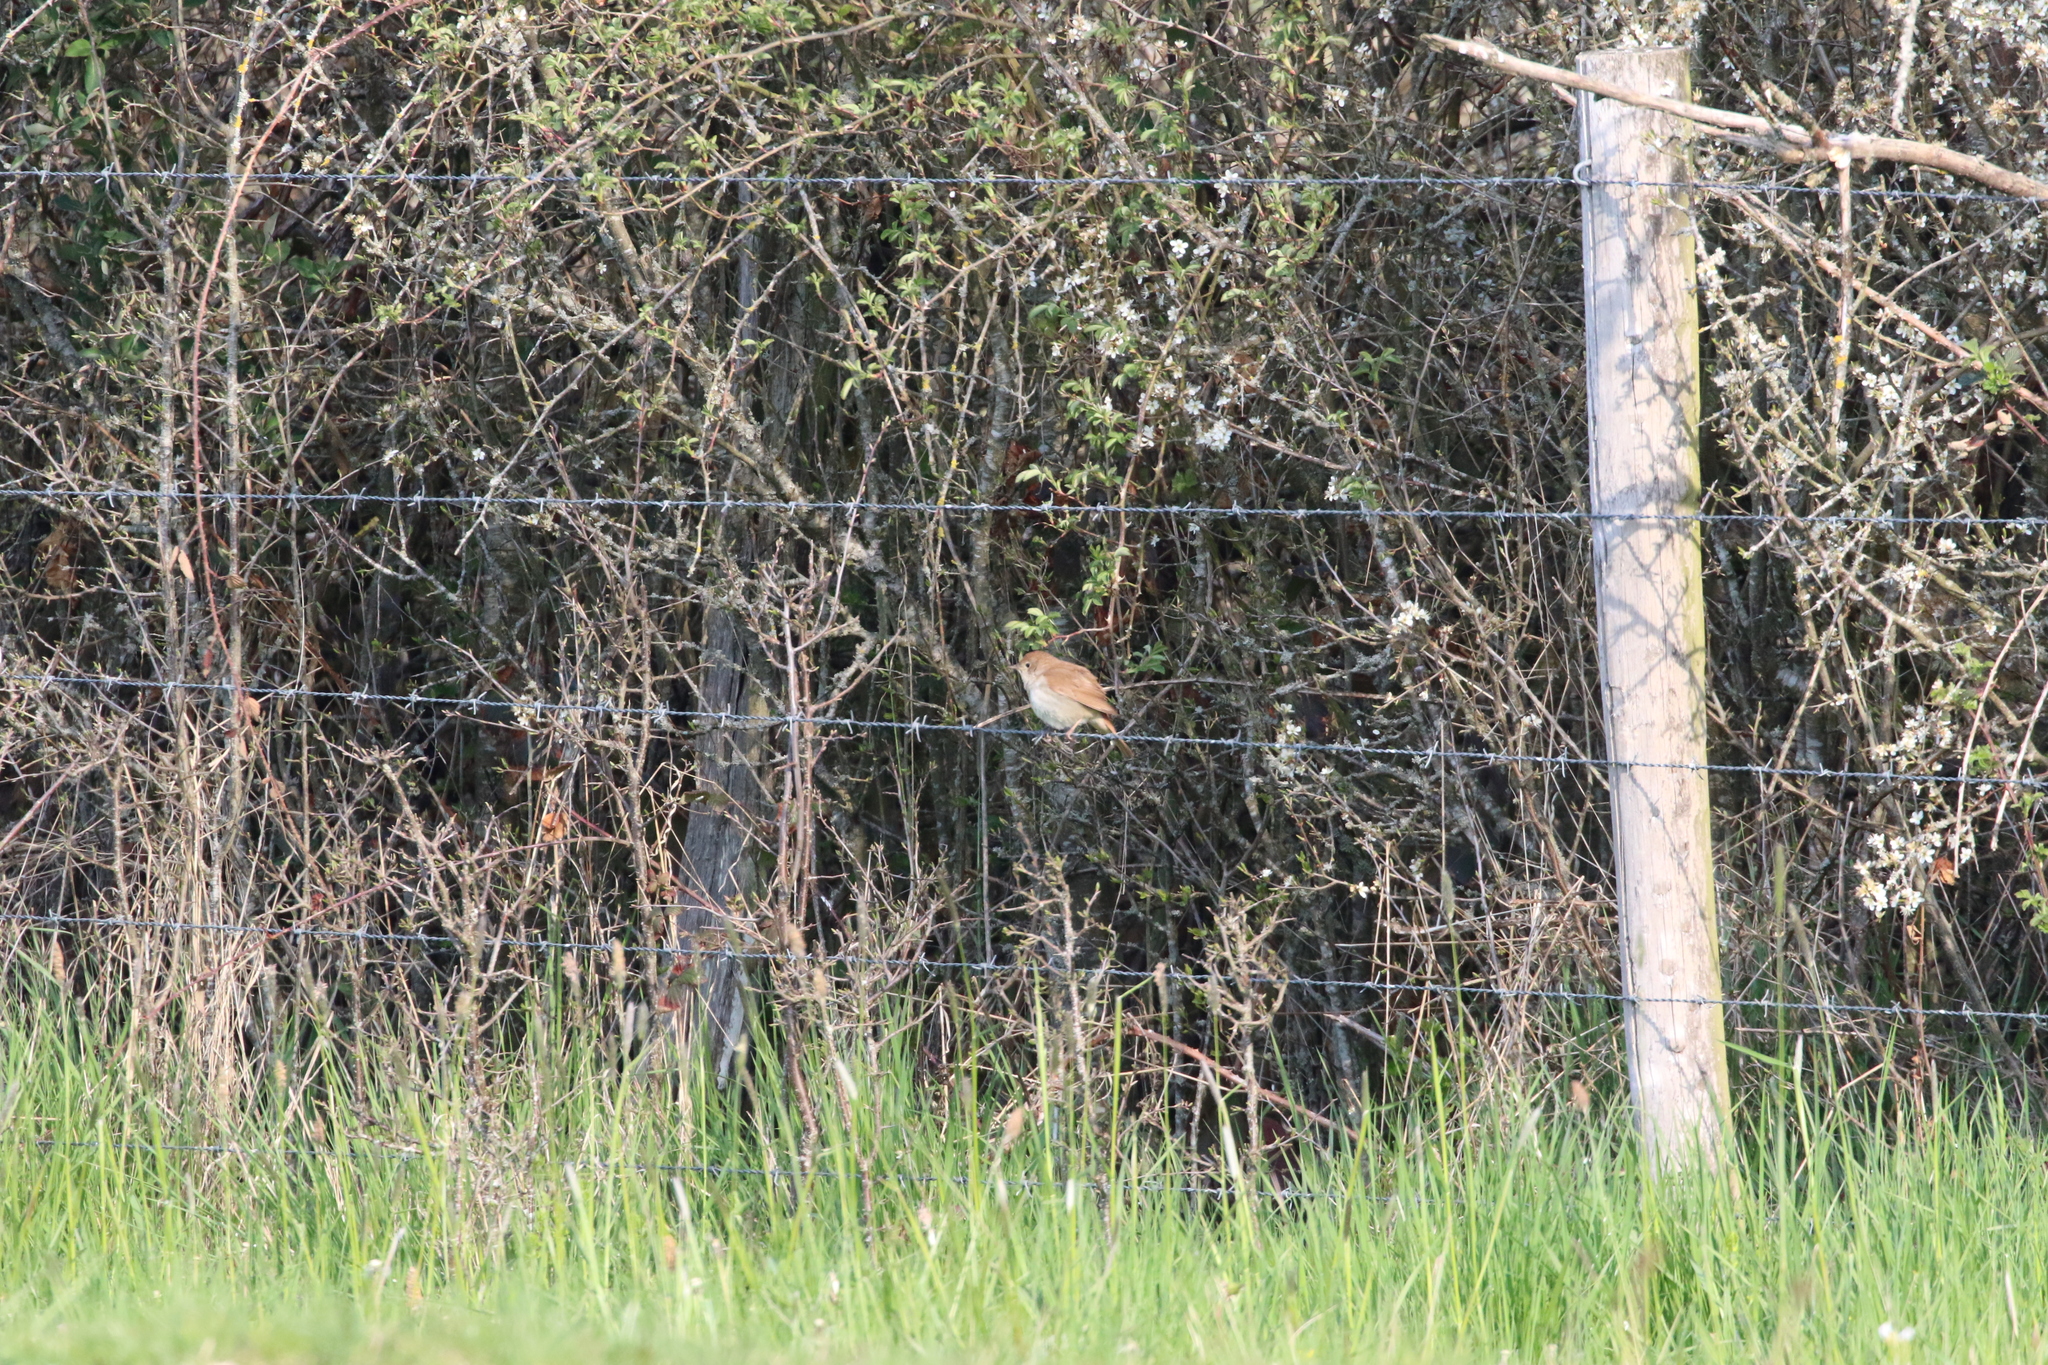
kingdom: Animalia
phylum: Chordata
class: Aves
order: Passeriformes
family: Muscicapidae
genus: Luscinia
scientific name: Luscinia megarhynchos
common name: Common nightingale
